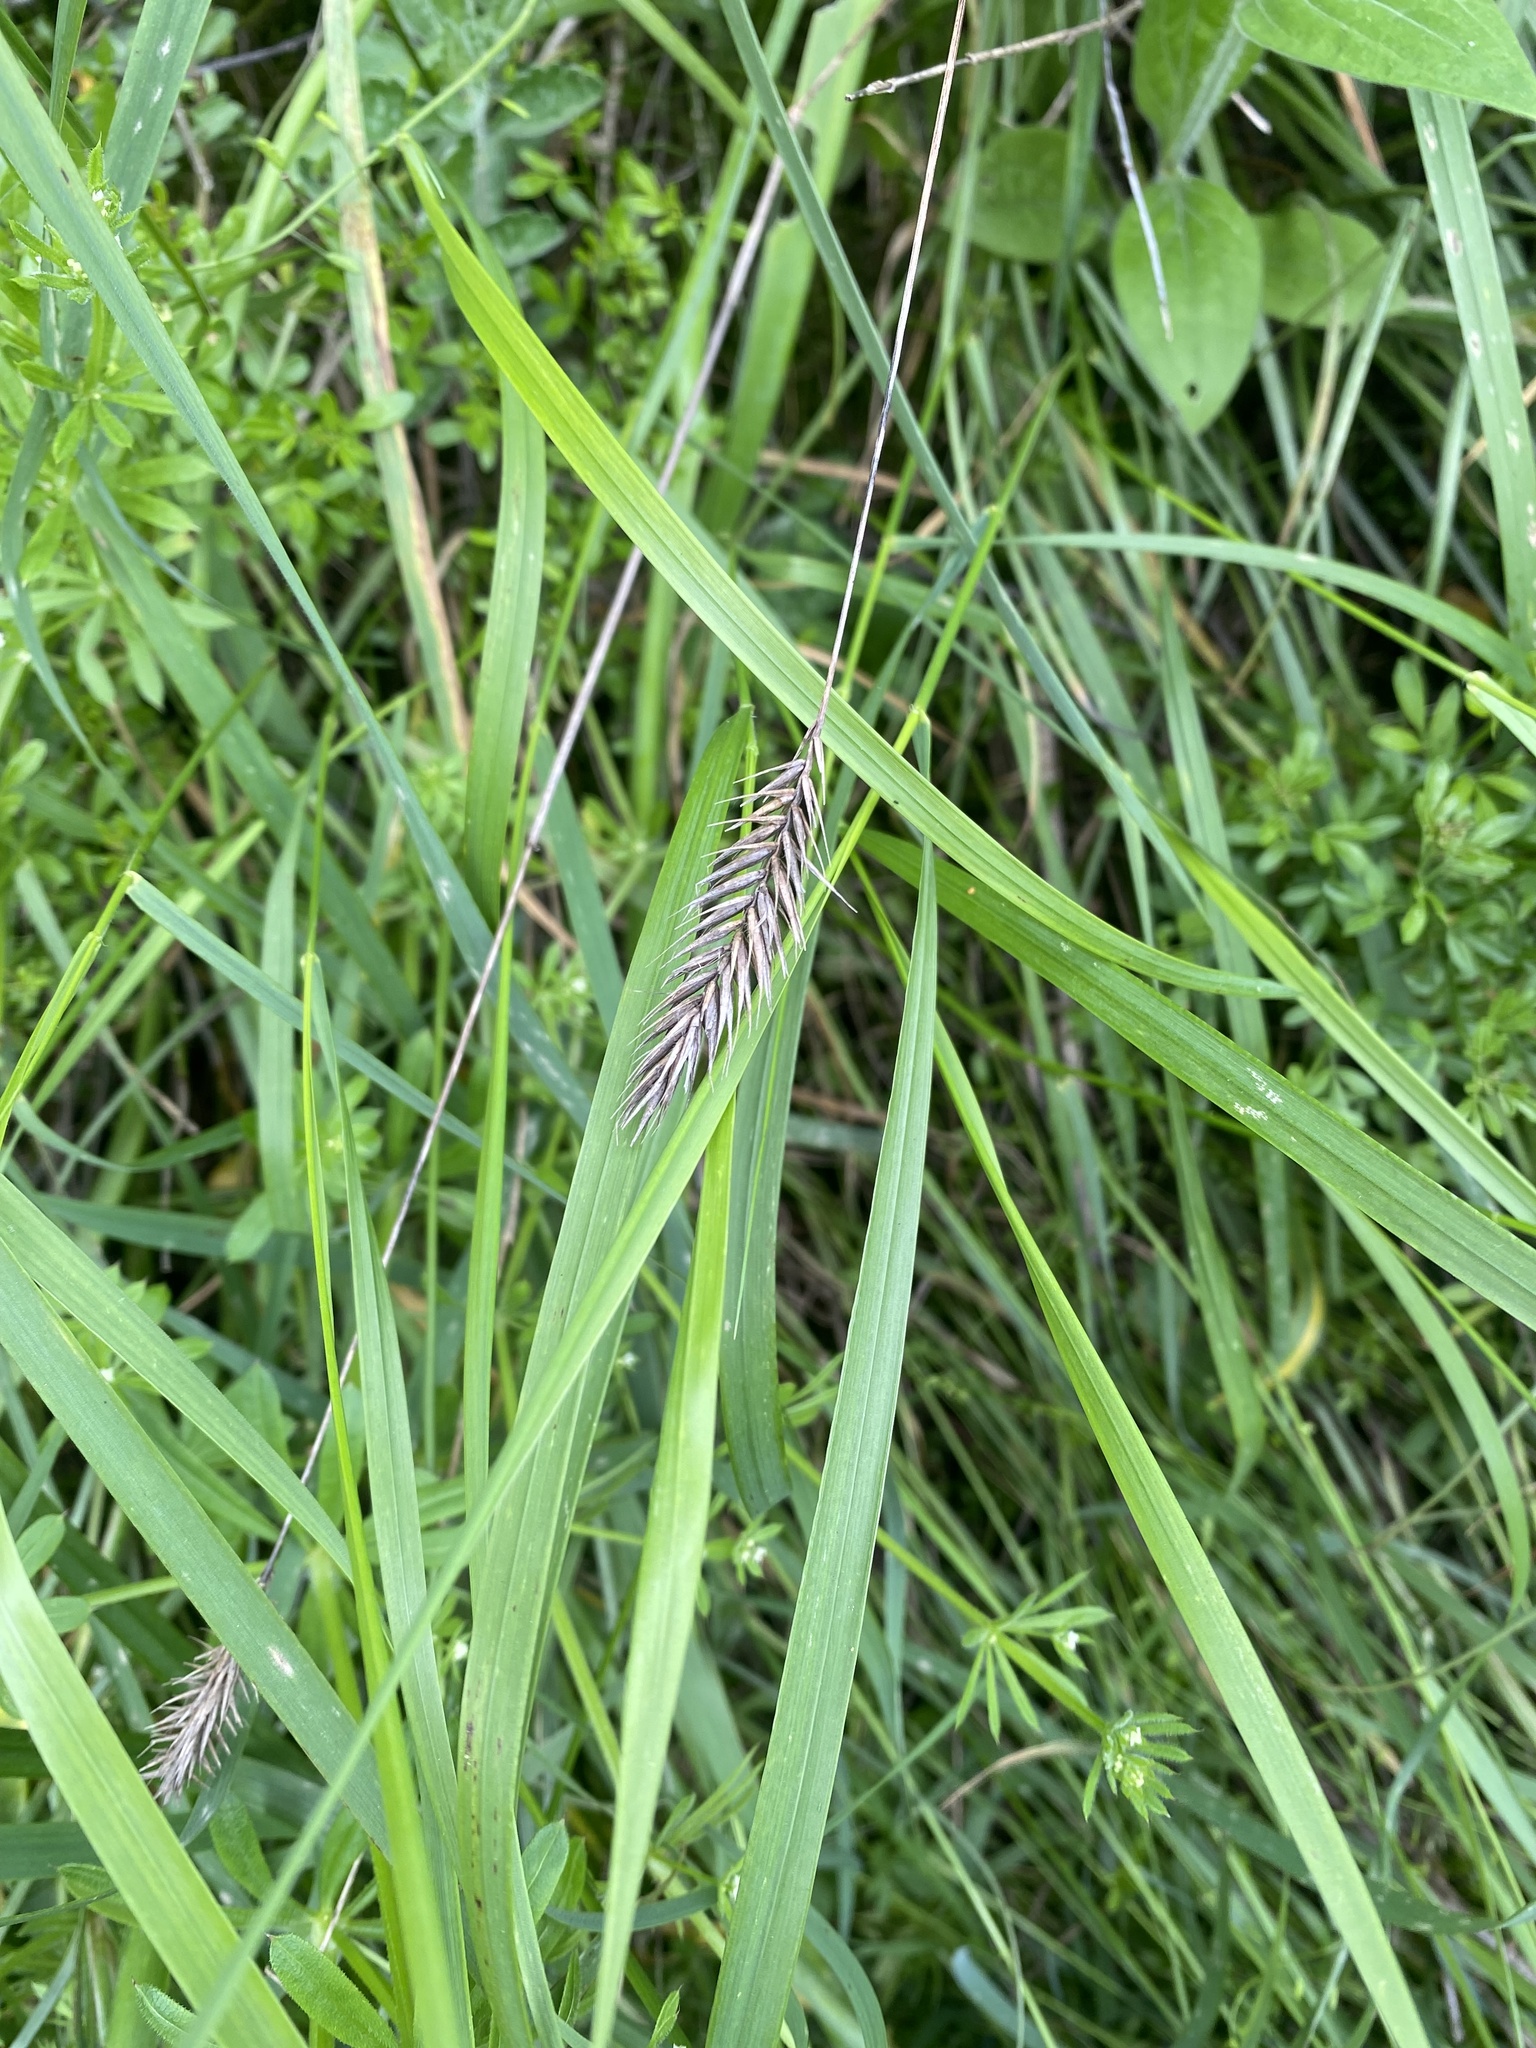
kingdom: Plantae
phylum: Tracheophyta
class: Liliopsida
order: Poales
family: Poaceae
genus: Agropyron
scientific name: Agropyron cristatum
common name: Crested wheatgrass
